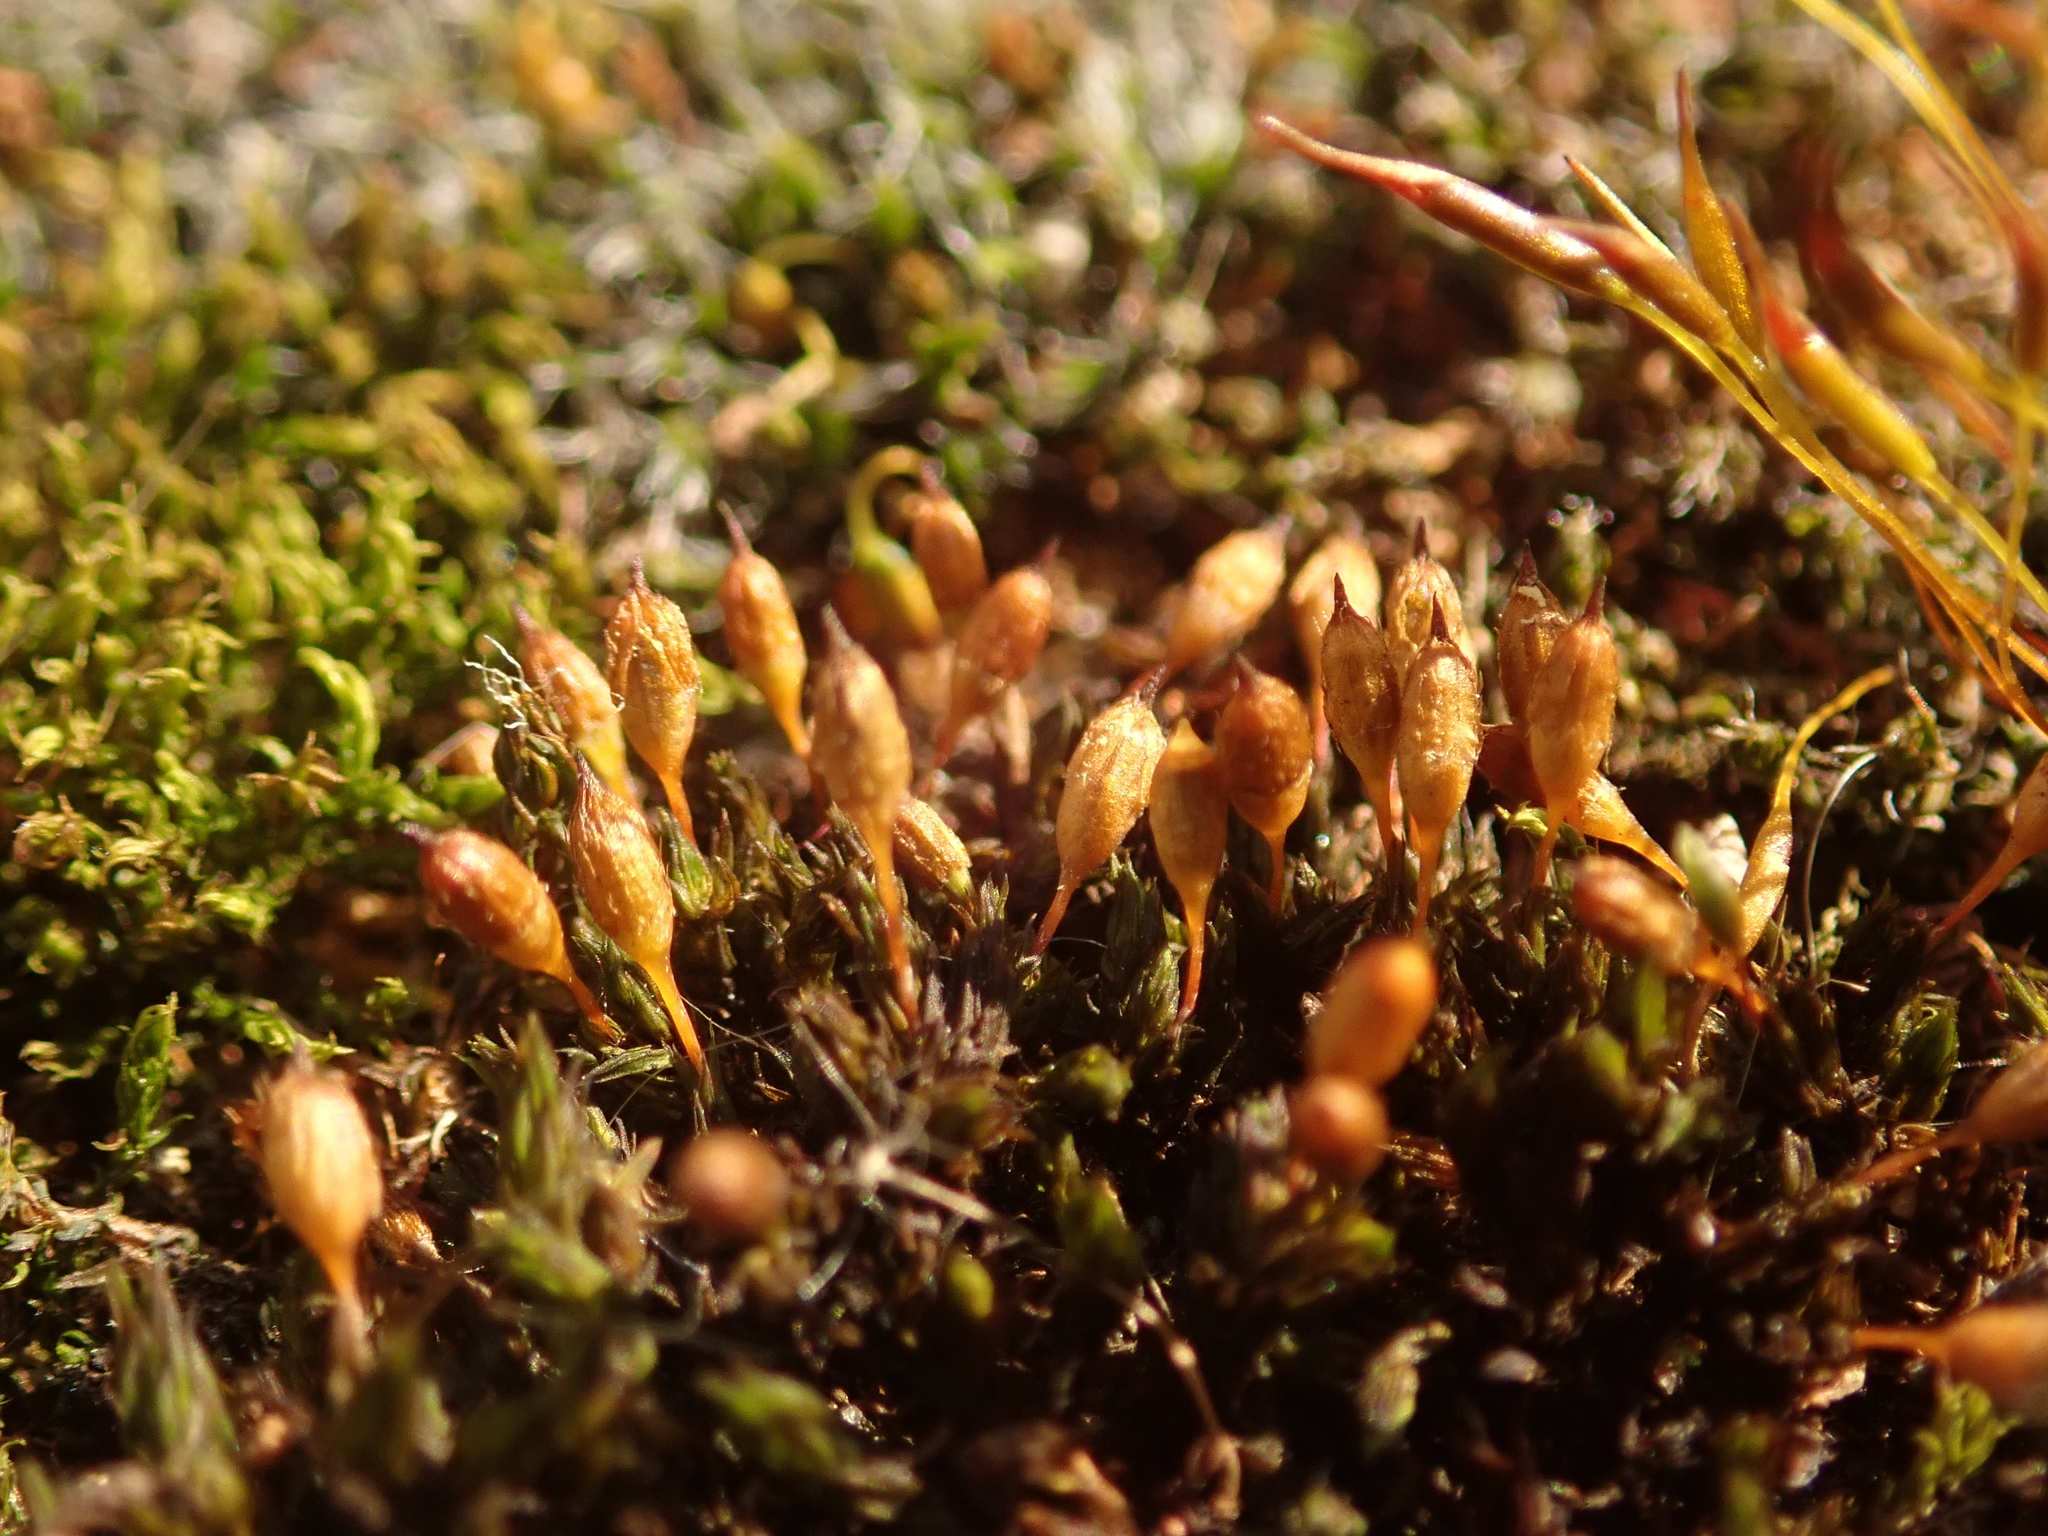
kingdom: Plantae
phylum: Bryophyta
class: Bryopsida
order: Orthotrichales
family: Orthotrichaceae
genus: Orthotrichum
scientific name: Orthotrichum anomalum
